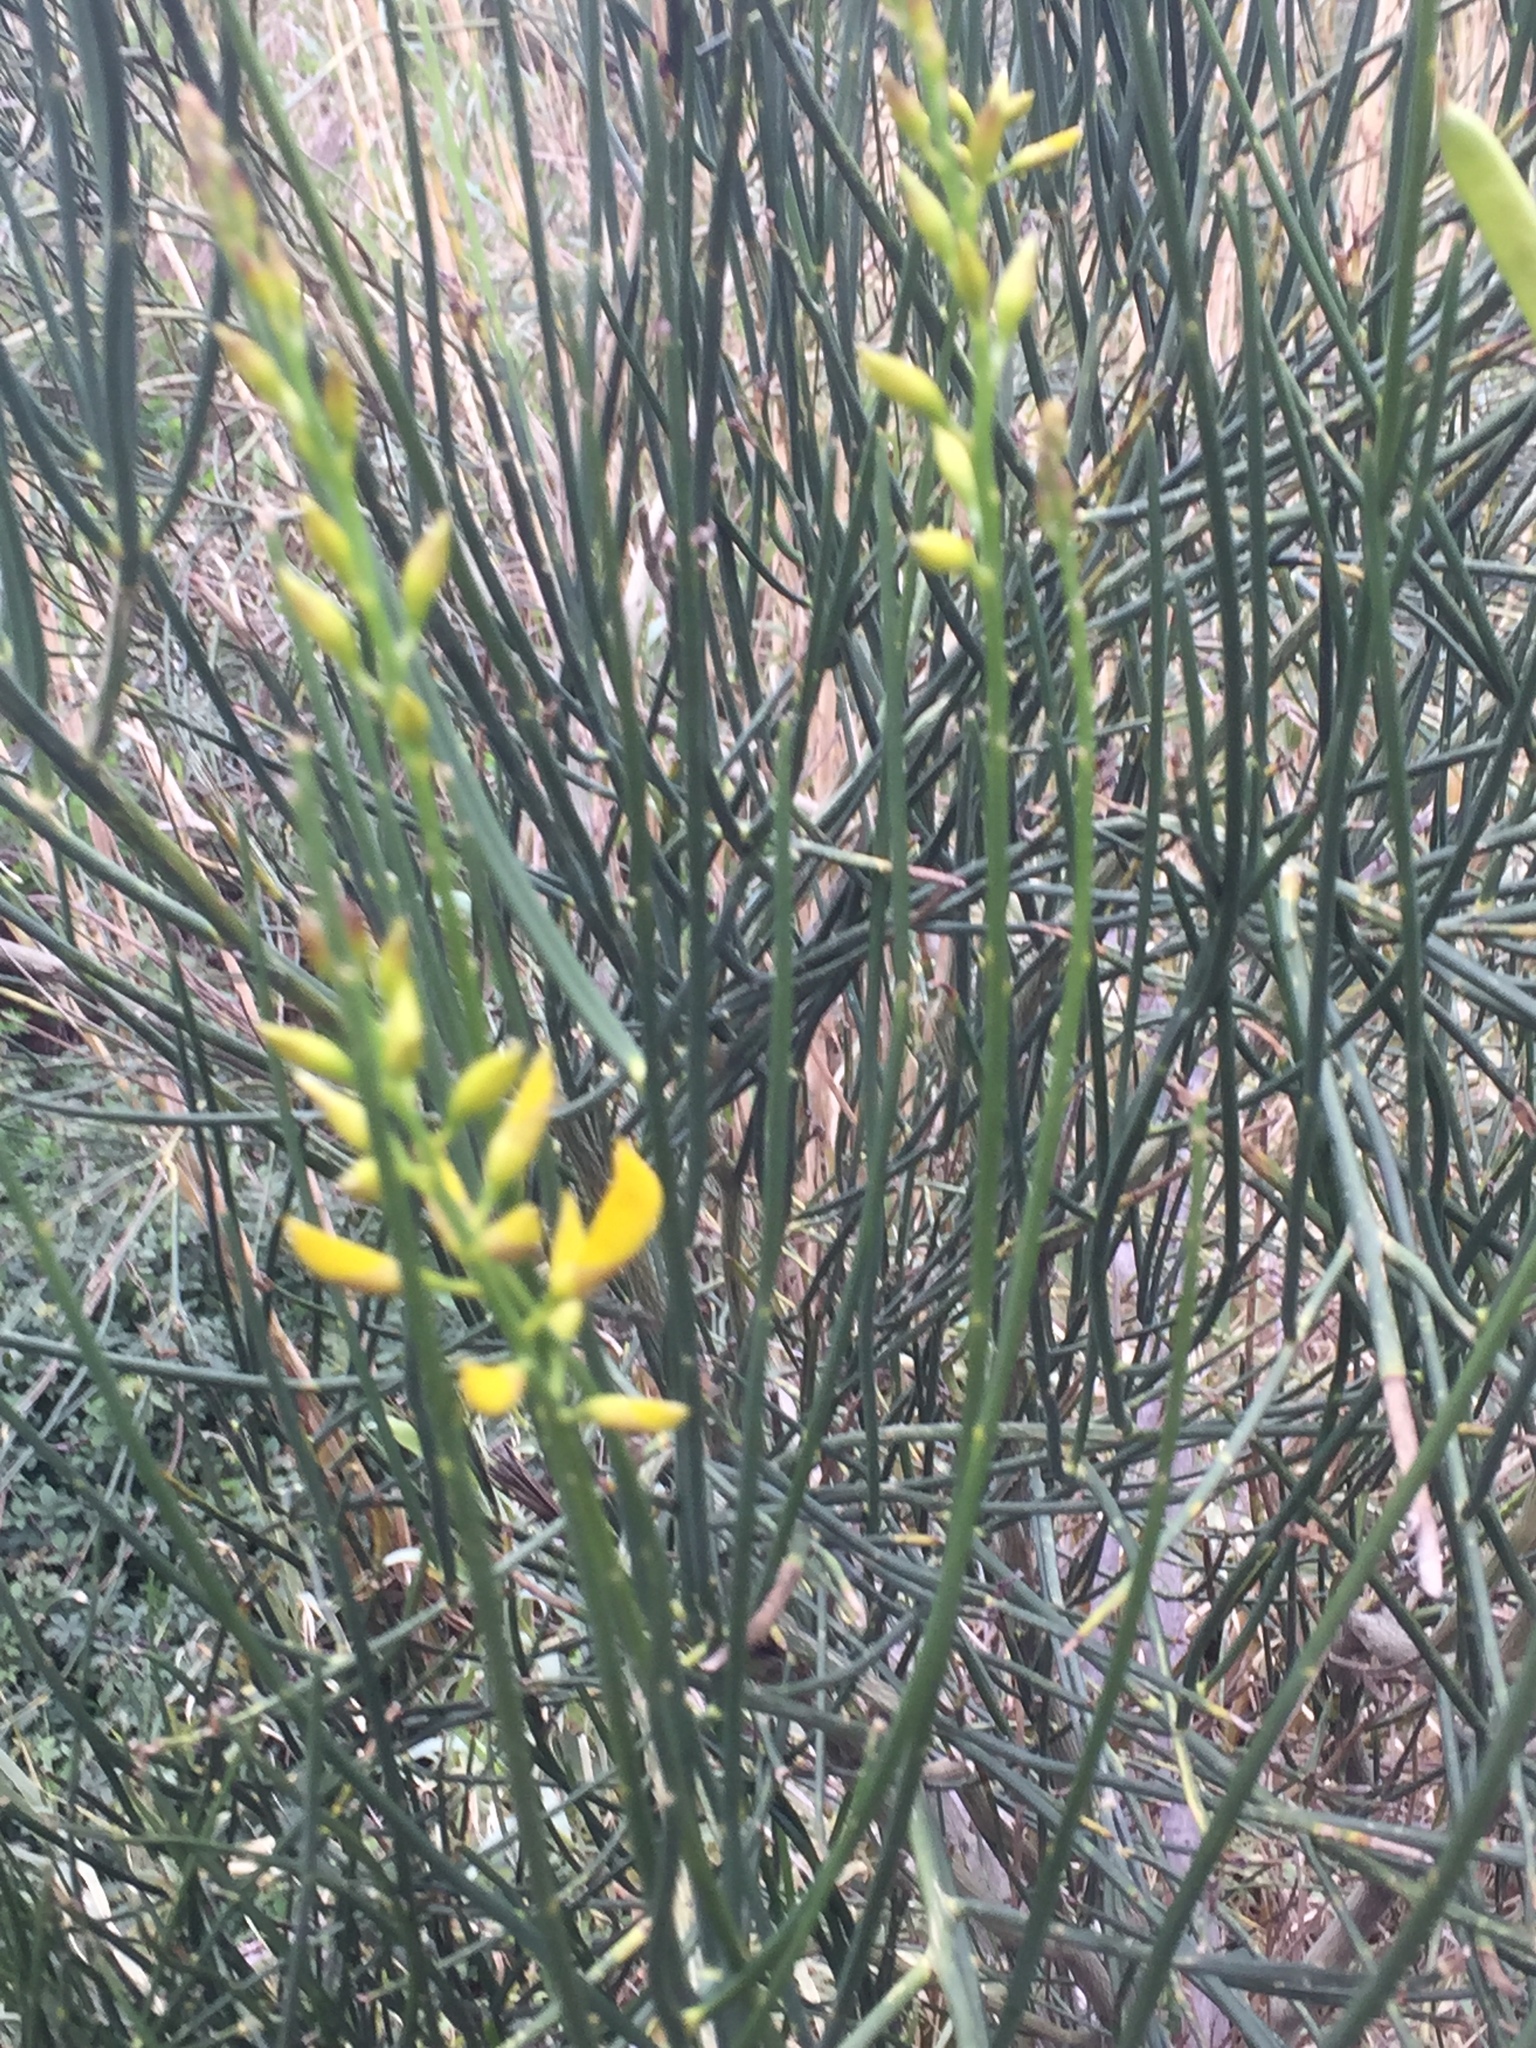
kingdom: Plantae
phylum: Tracheophyta
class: Magnoliopsida
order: Fabales
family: Fabaceae
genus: Spartium
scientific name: Spartium junceum
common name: Spanish broom
